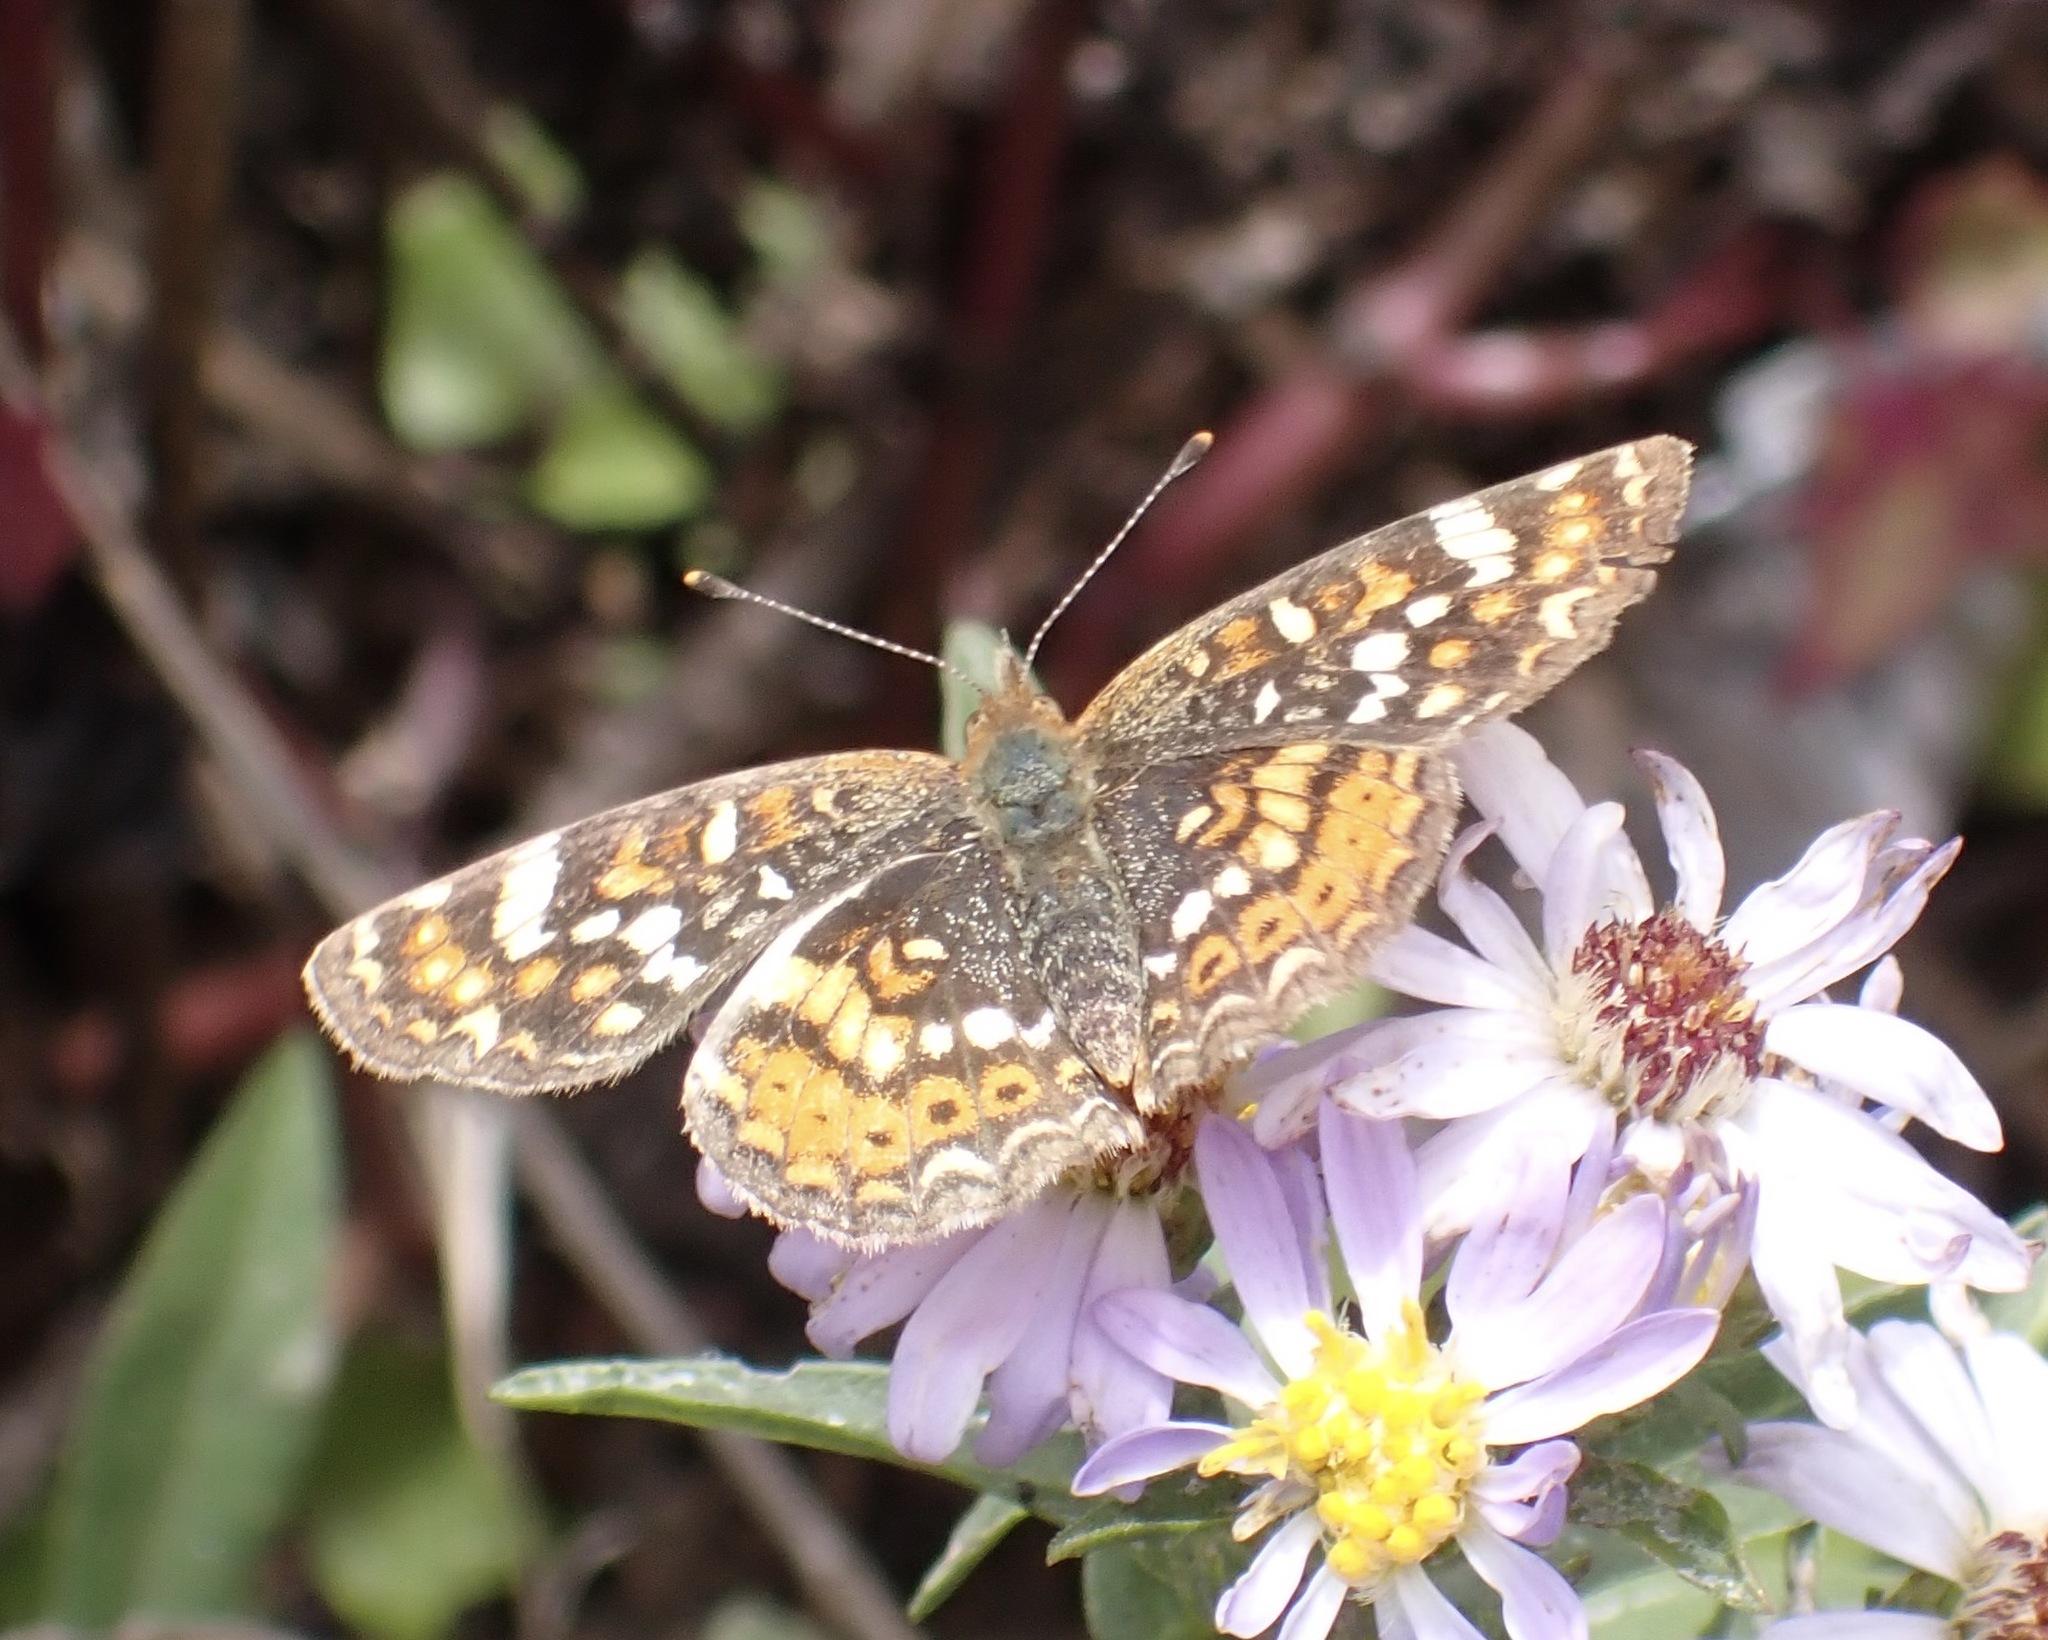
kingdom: Animalia
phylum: Arthropoda
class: Insecta
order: Lepidoptera
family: Nymphalidae
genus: Phyciodes
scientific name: Phyciodes tharos
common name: Pearl crescent
